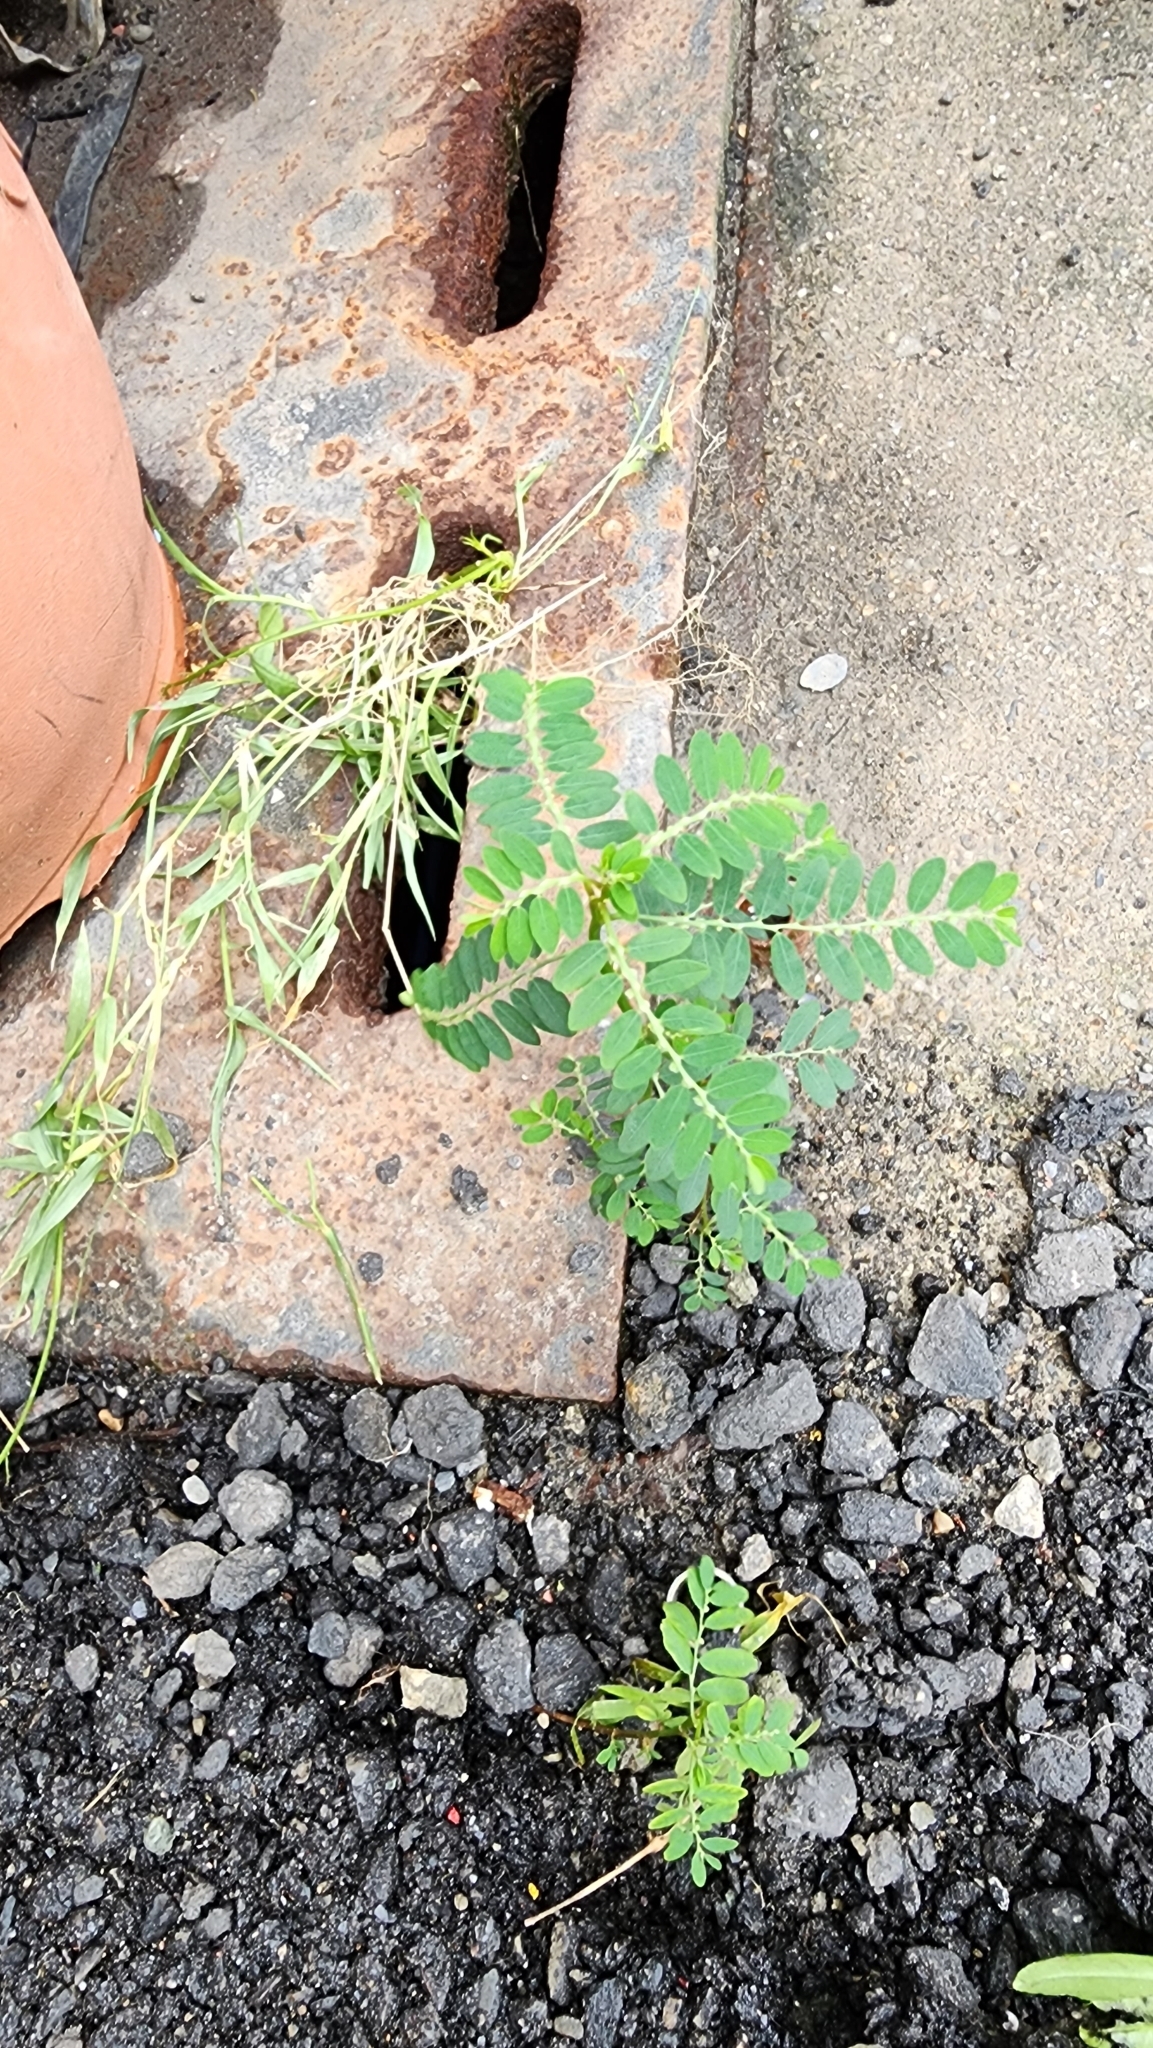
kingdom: Plantae
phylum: Tracheophyta
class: Magnoliopsida
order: Malpighiales
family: Phyllanthaceae
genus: Phyllanthus
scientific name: Phyllanthus debilis
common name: Niruri
